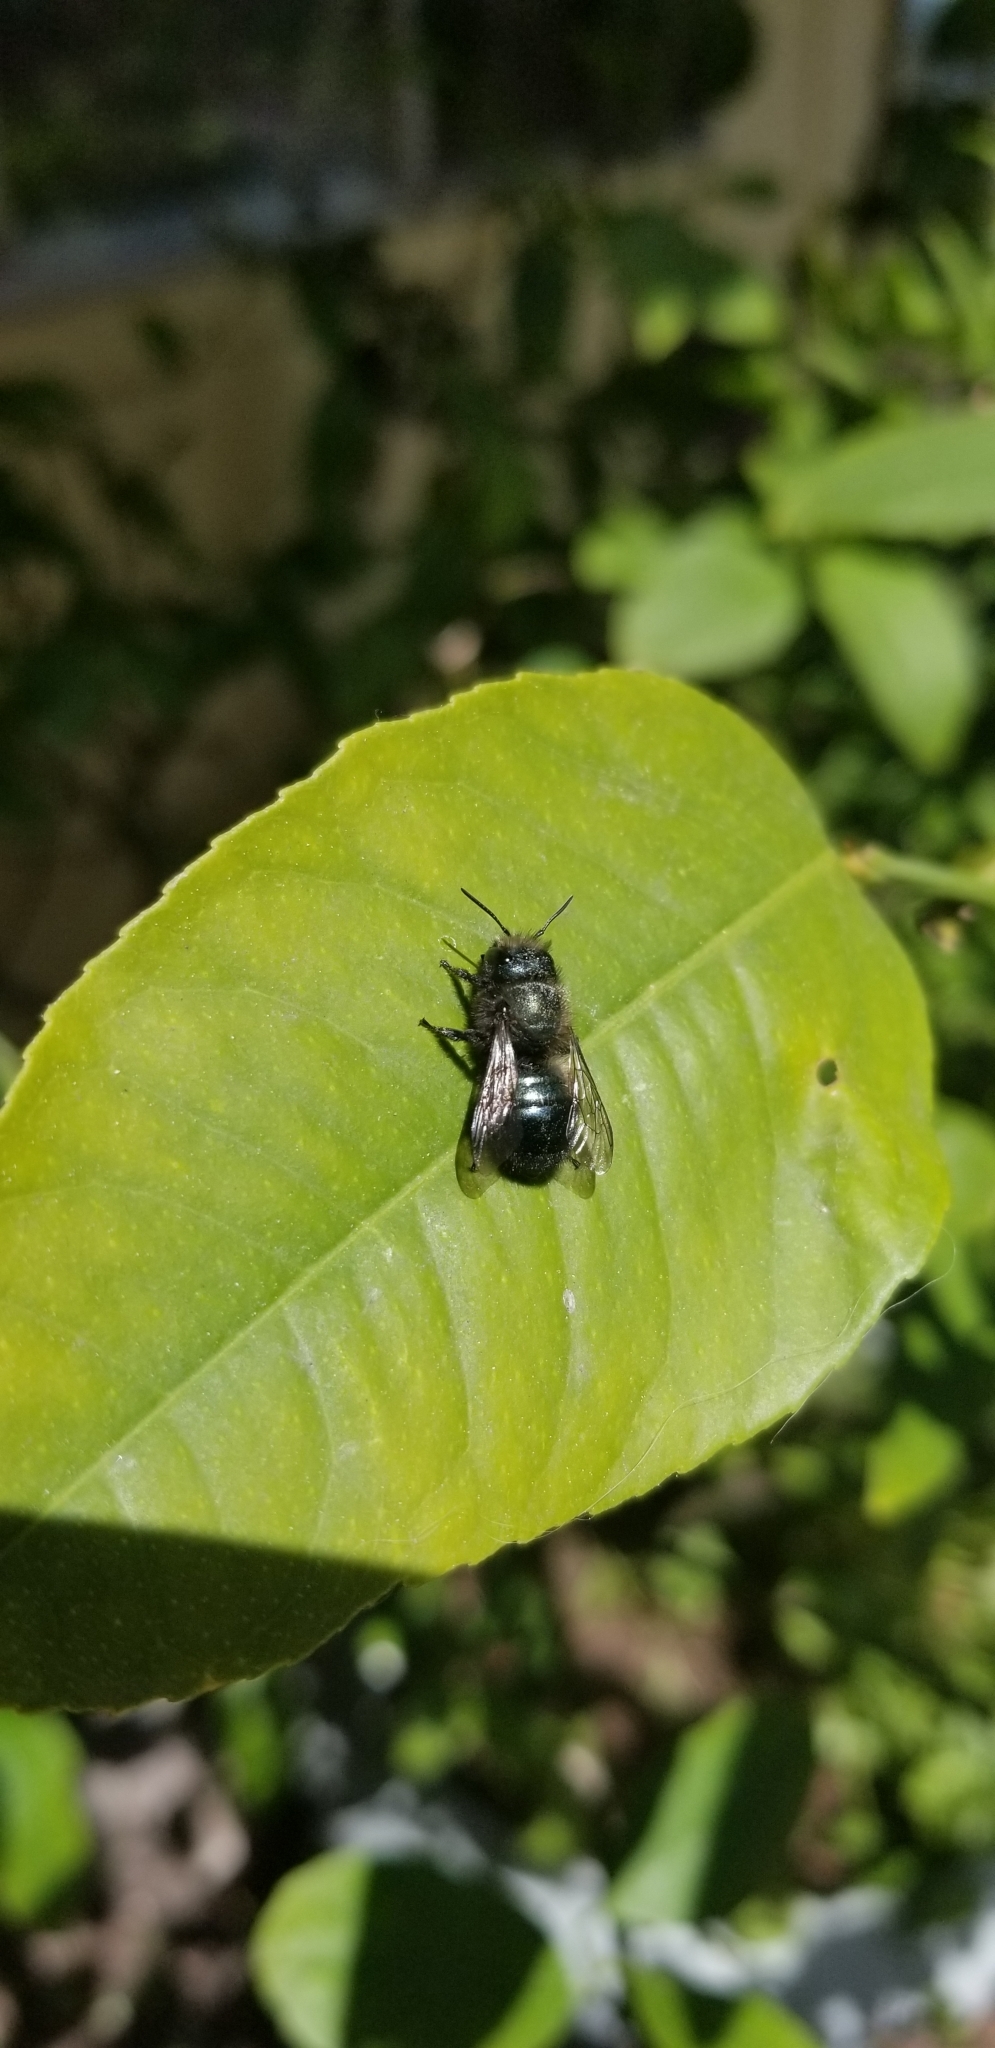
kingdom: Animalia
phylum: Arthropoda
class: Insecta
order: Hymenoptera
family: Megachilidae
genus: Osmia
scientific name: Osmia lignaria
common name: Blue orchard bee
